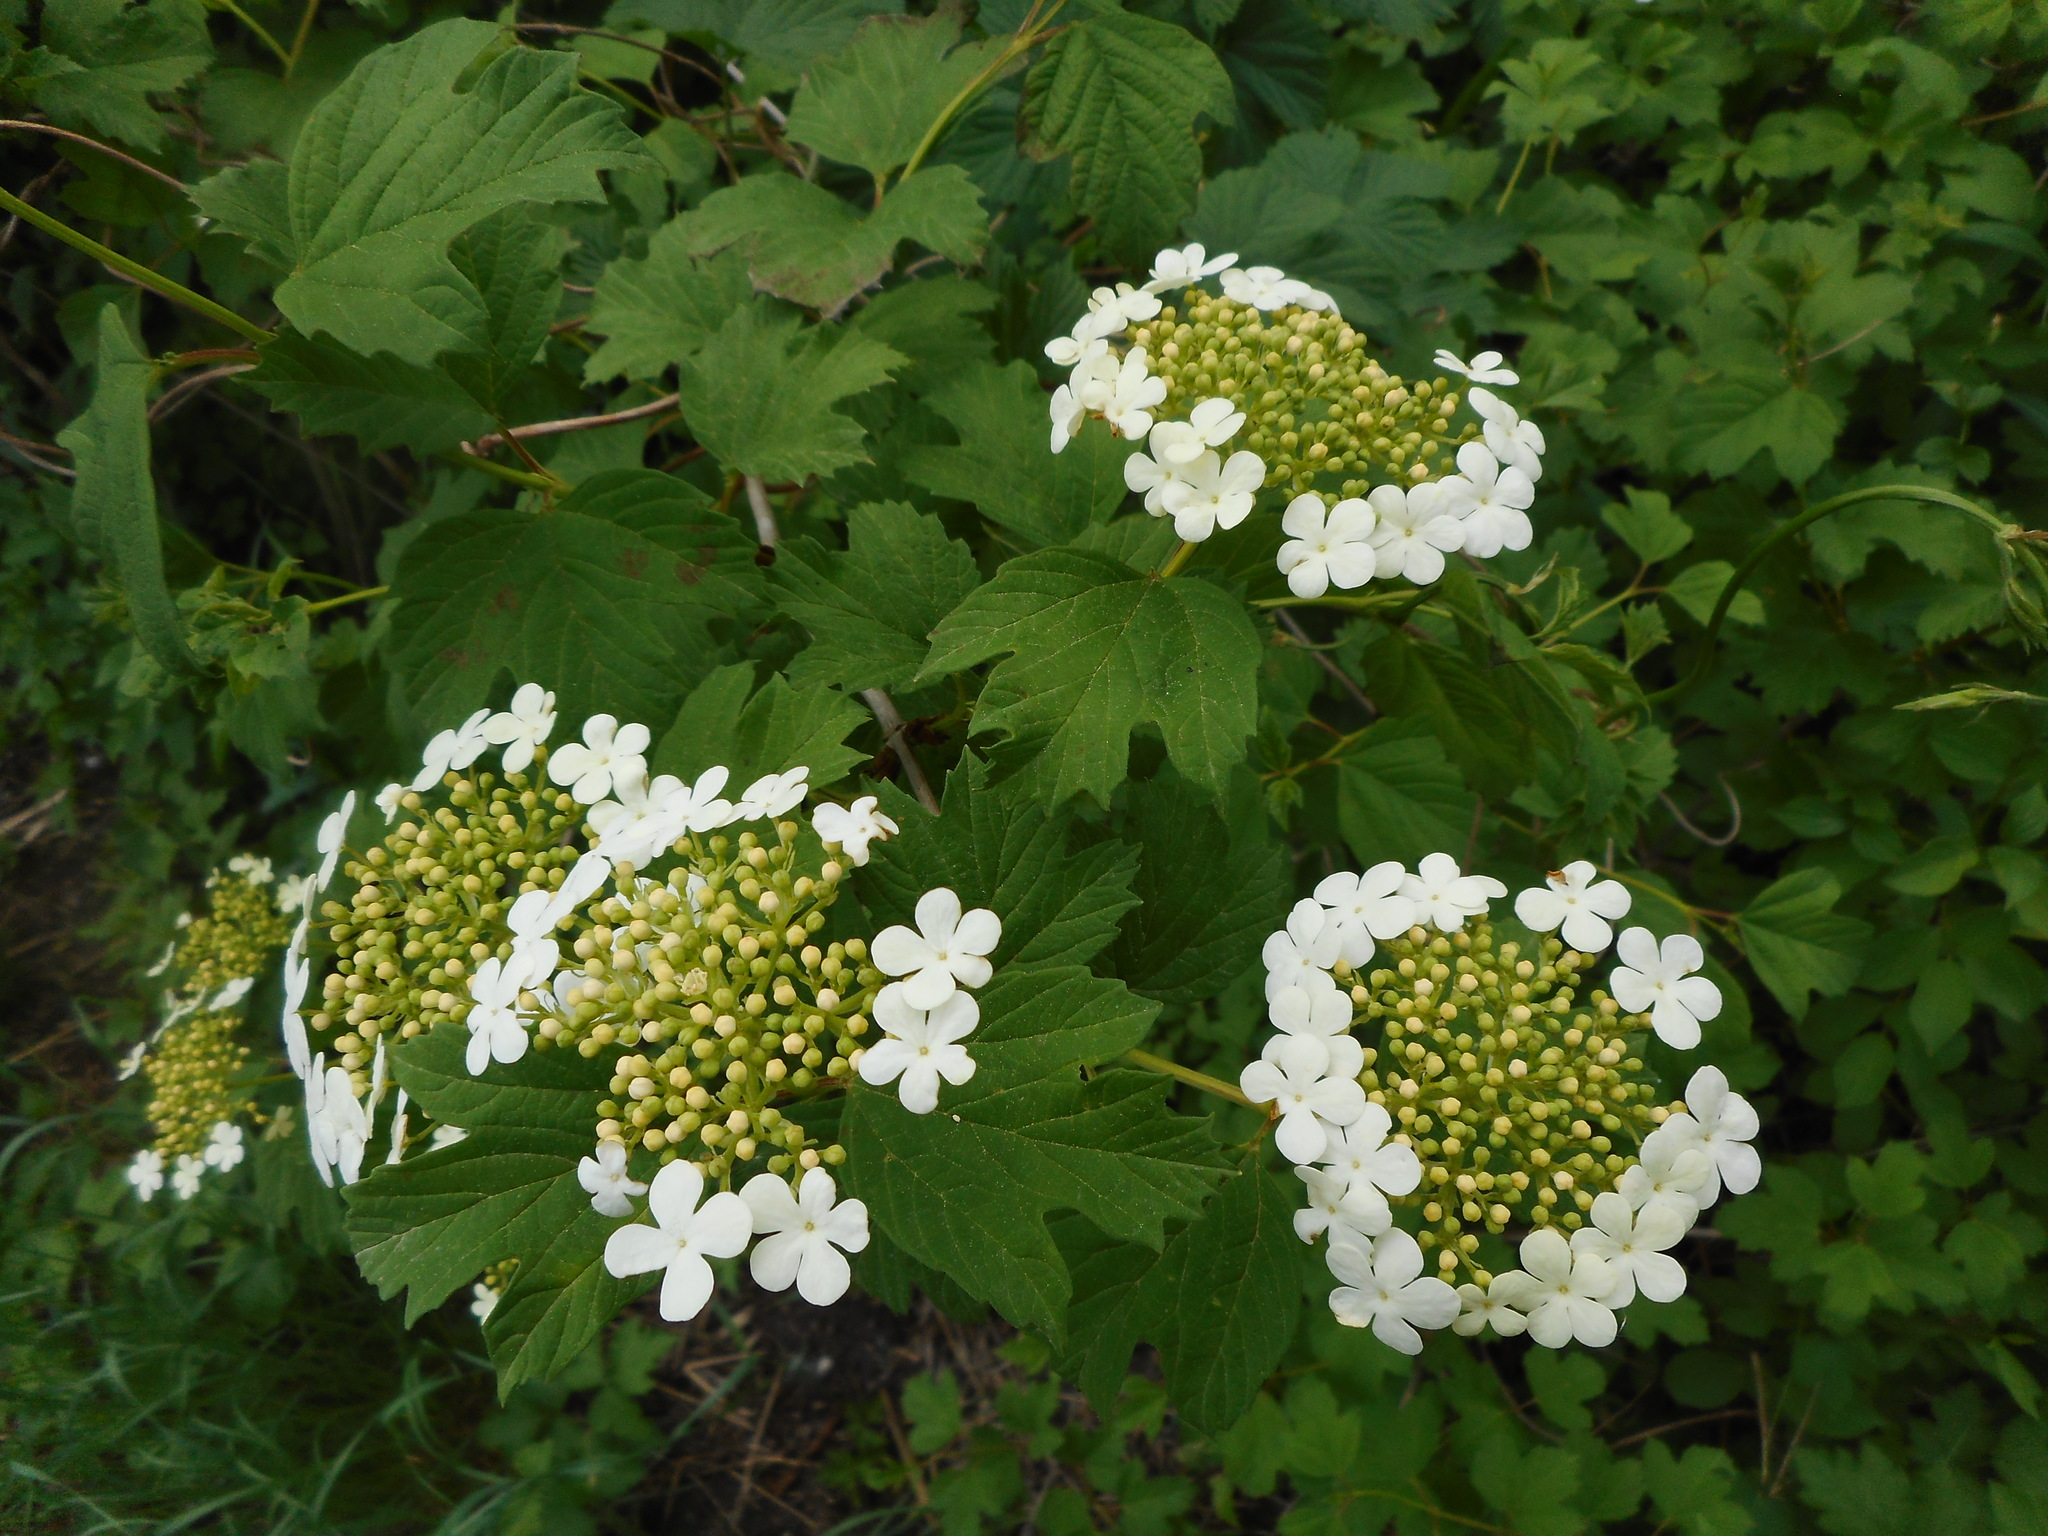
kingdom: Plantae
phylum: Tracheophyta
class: Magnoliopsida
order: Dipsacales
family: Viburnaceae
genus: Viburnum
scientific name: Viburnum opulus
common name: Guelder-rose
